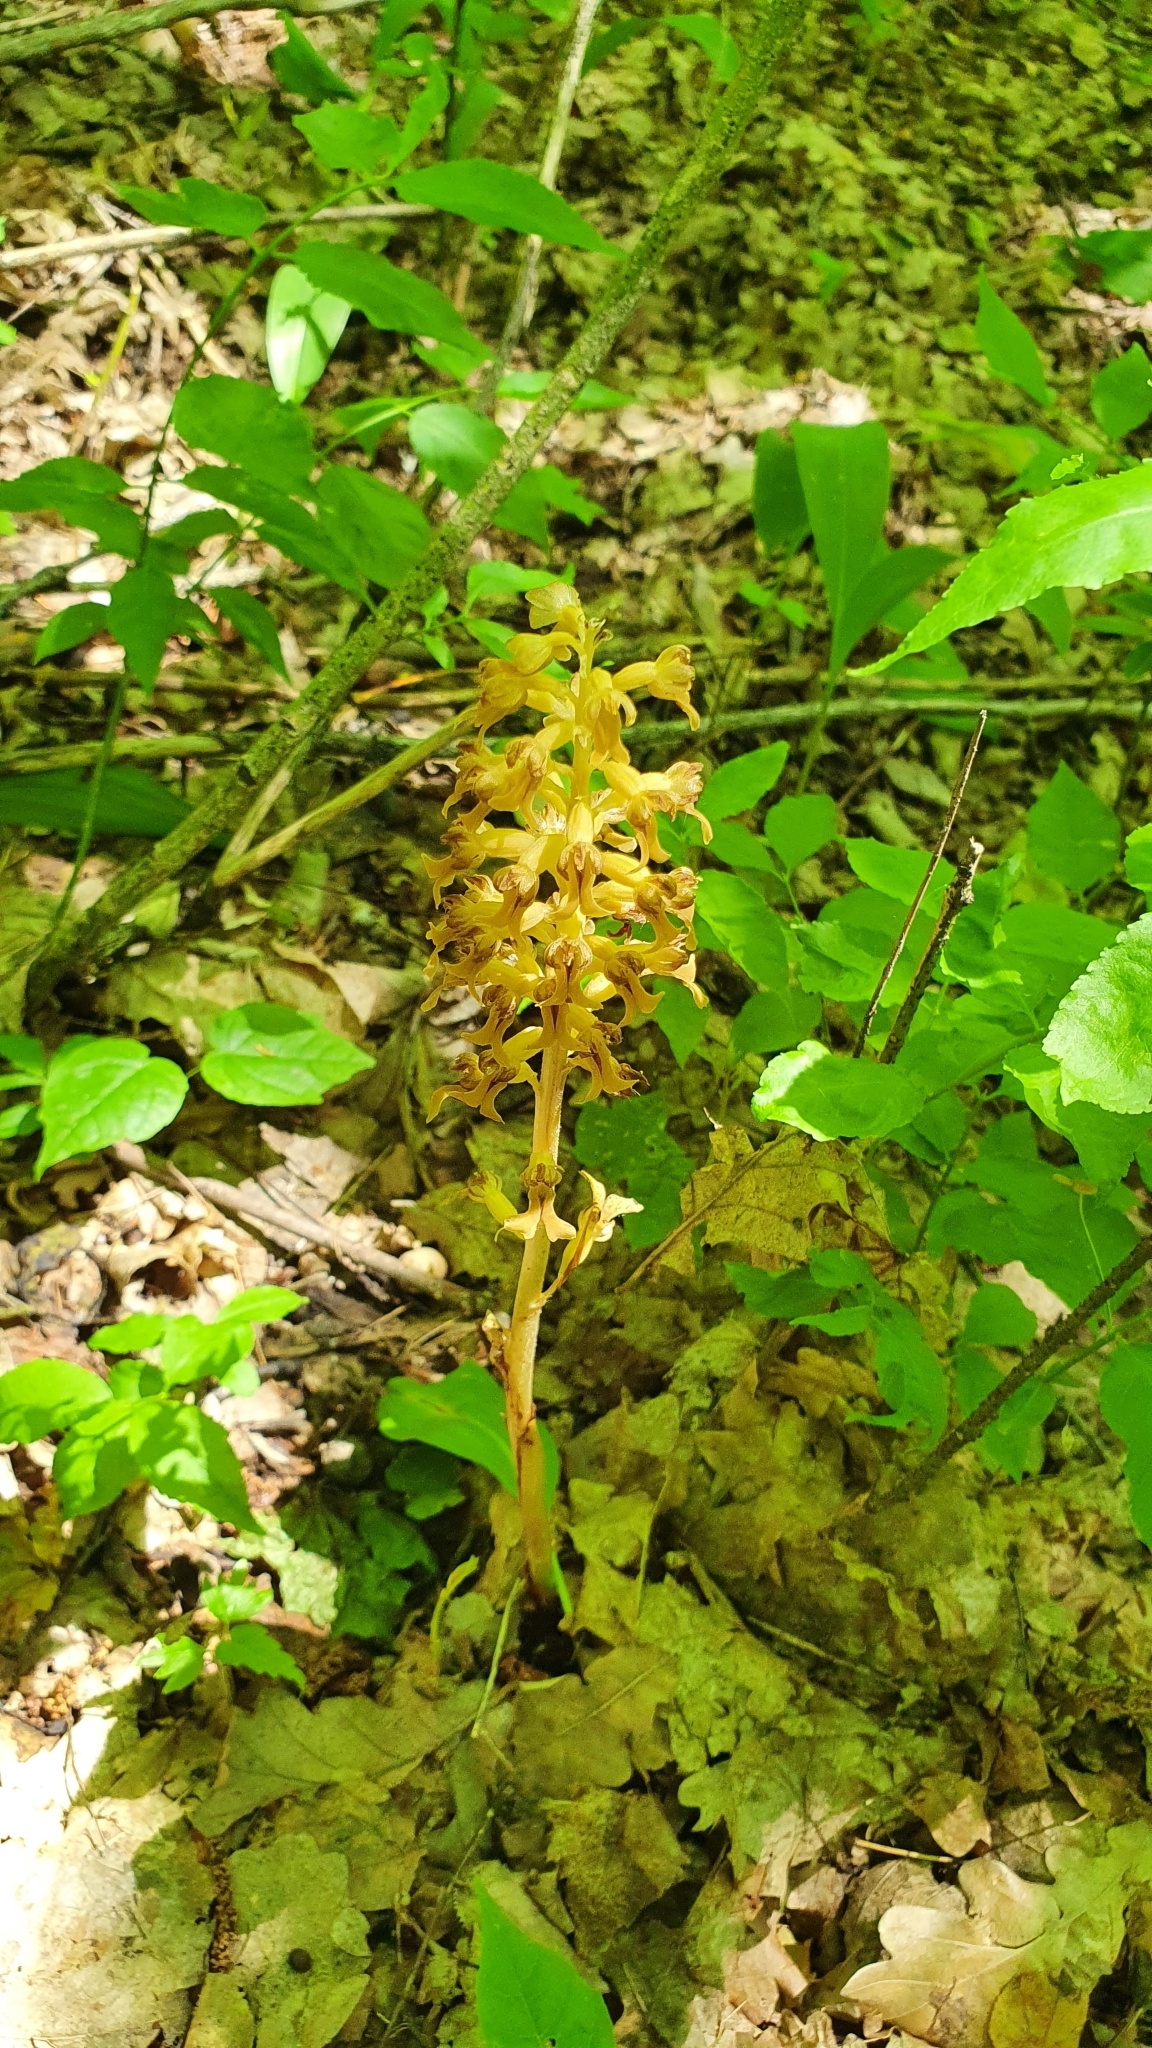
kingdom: Plantae
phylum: Tracheophyta
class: Liliopsida
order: Asparagales
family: Orchidaceae
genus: Neottia
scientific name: Neottia nidus-avis
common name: Bird's-nest orchid
